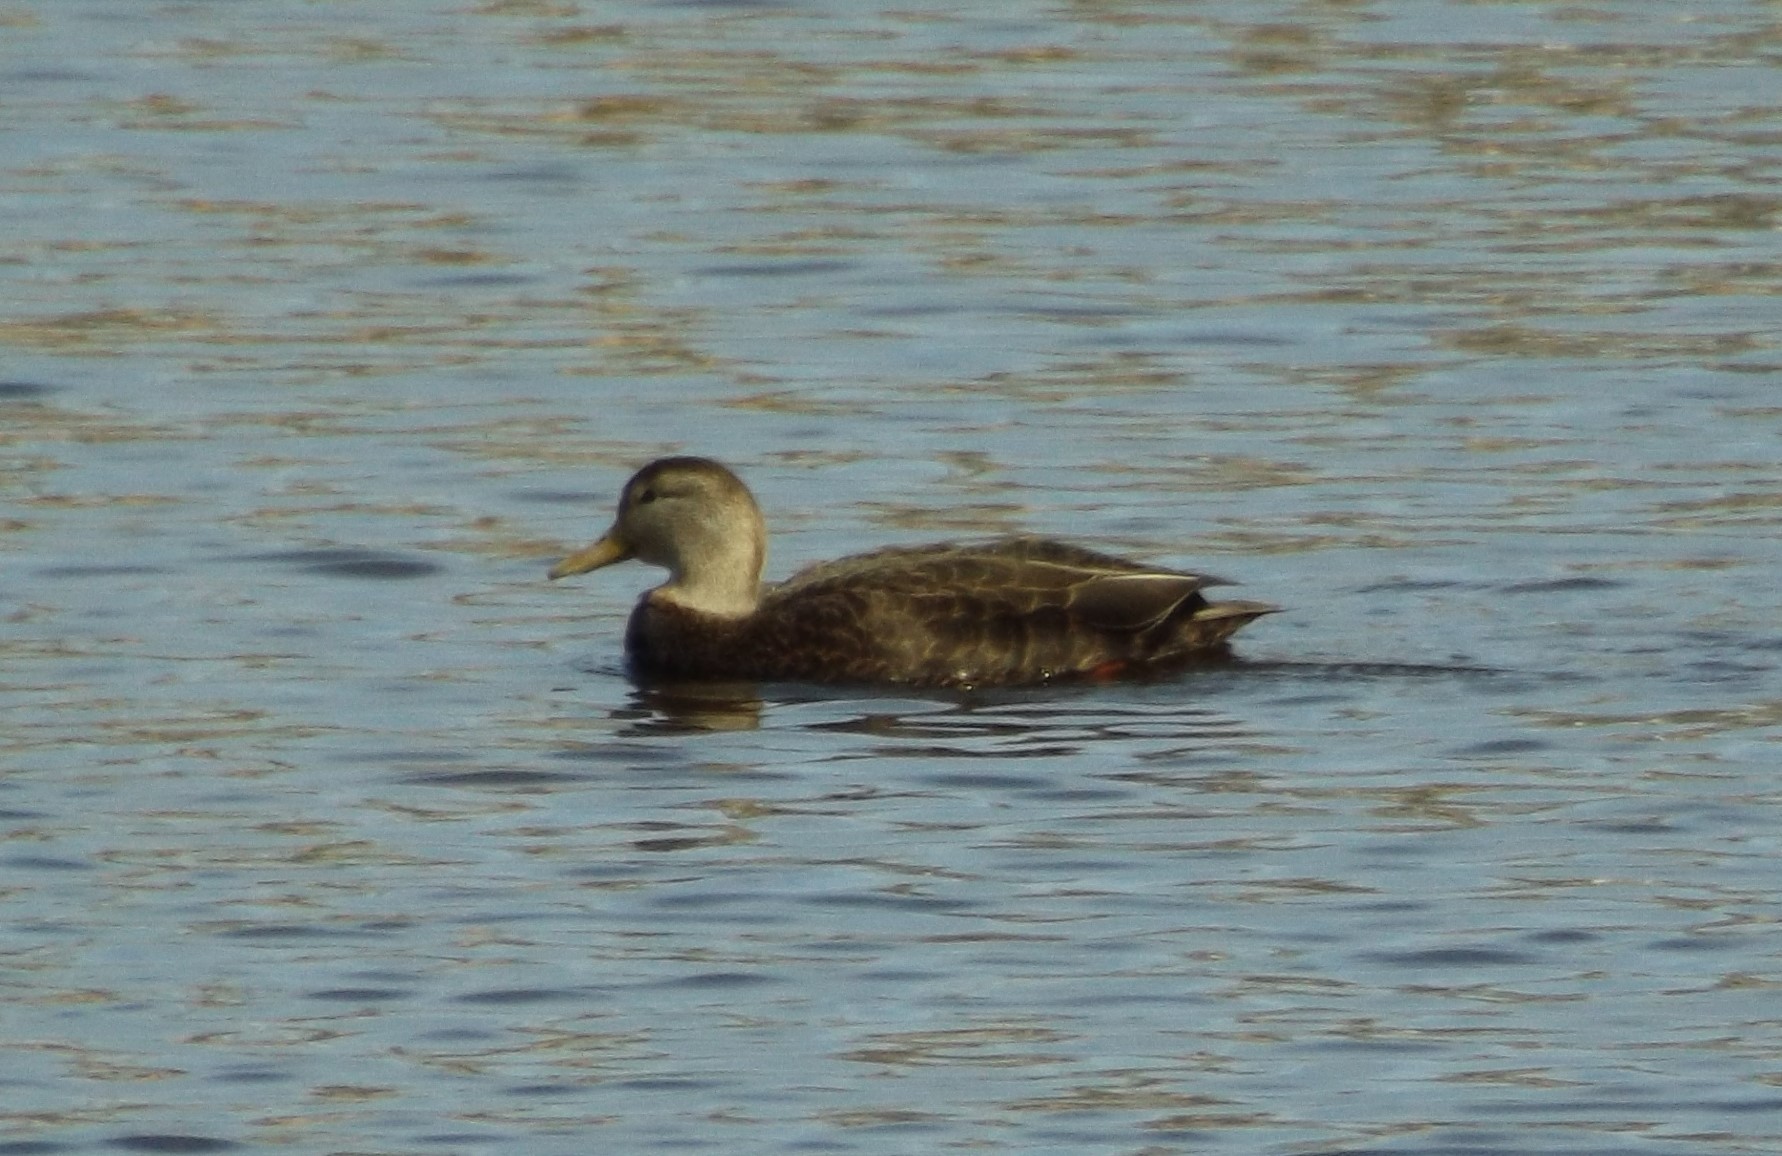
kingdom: Animalia
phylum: Chordata
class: Aves
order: Anseriformes
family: Anatidae
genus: Anas
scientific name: Anas rubripes
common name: American black duck
